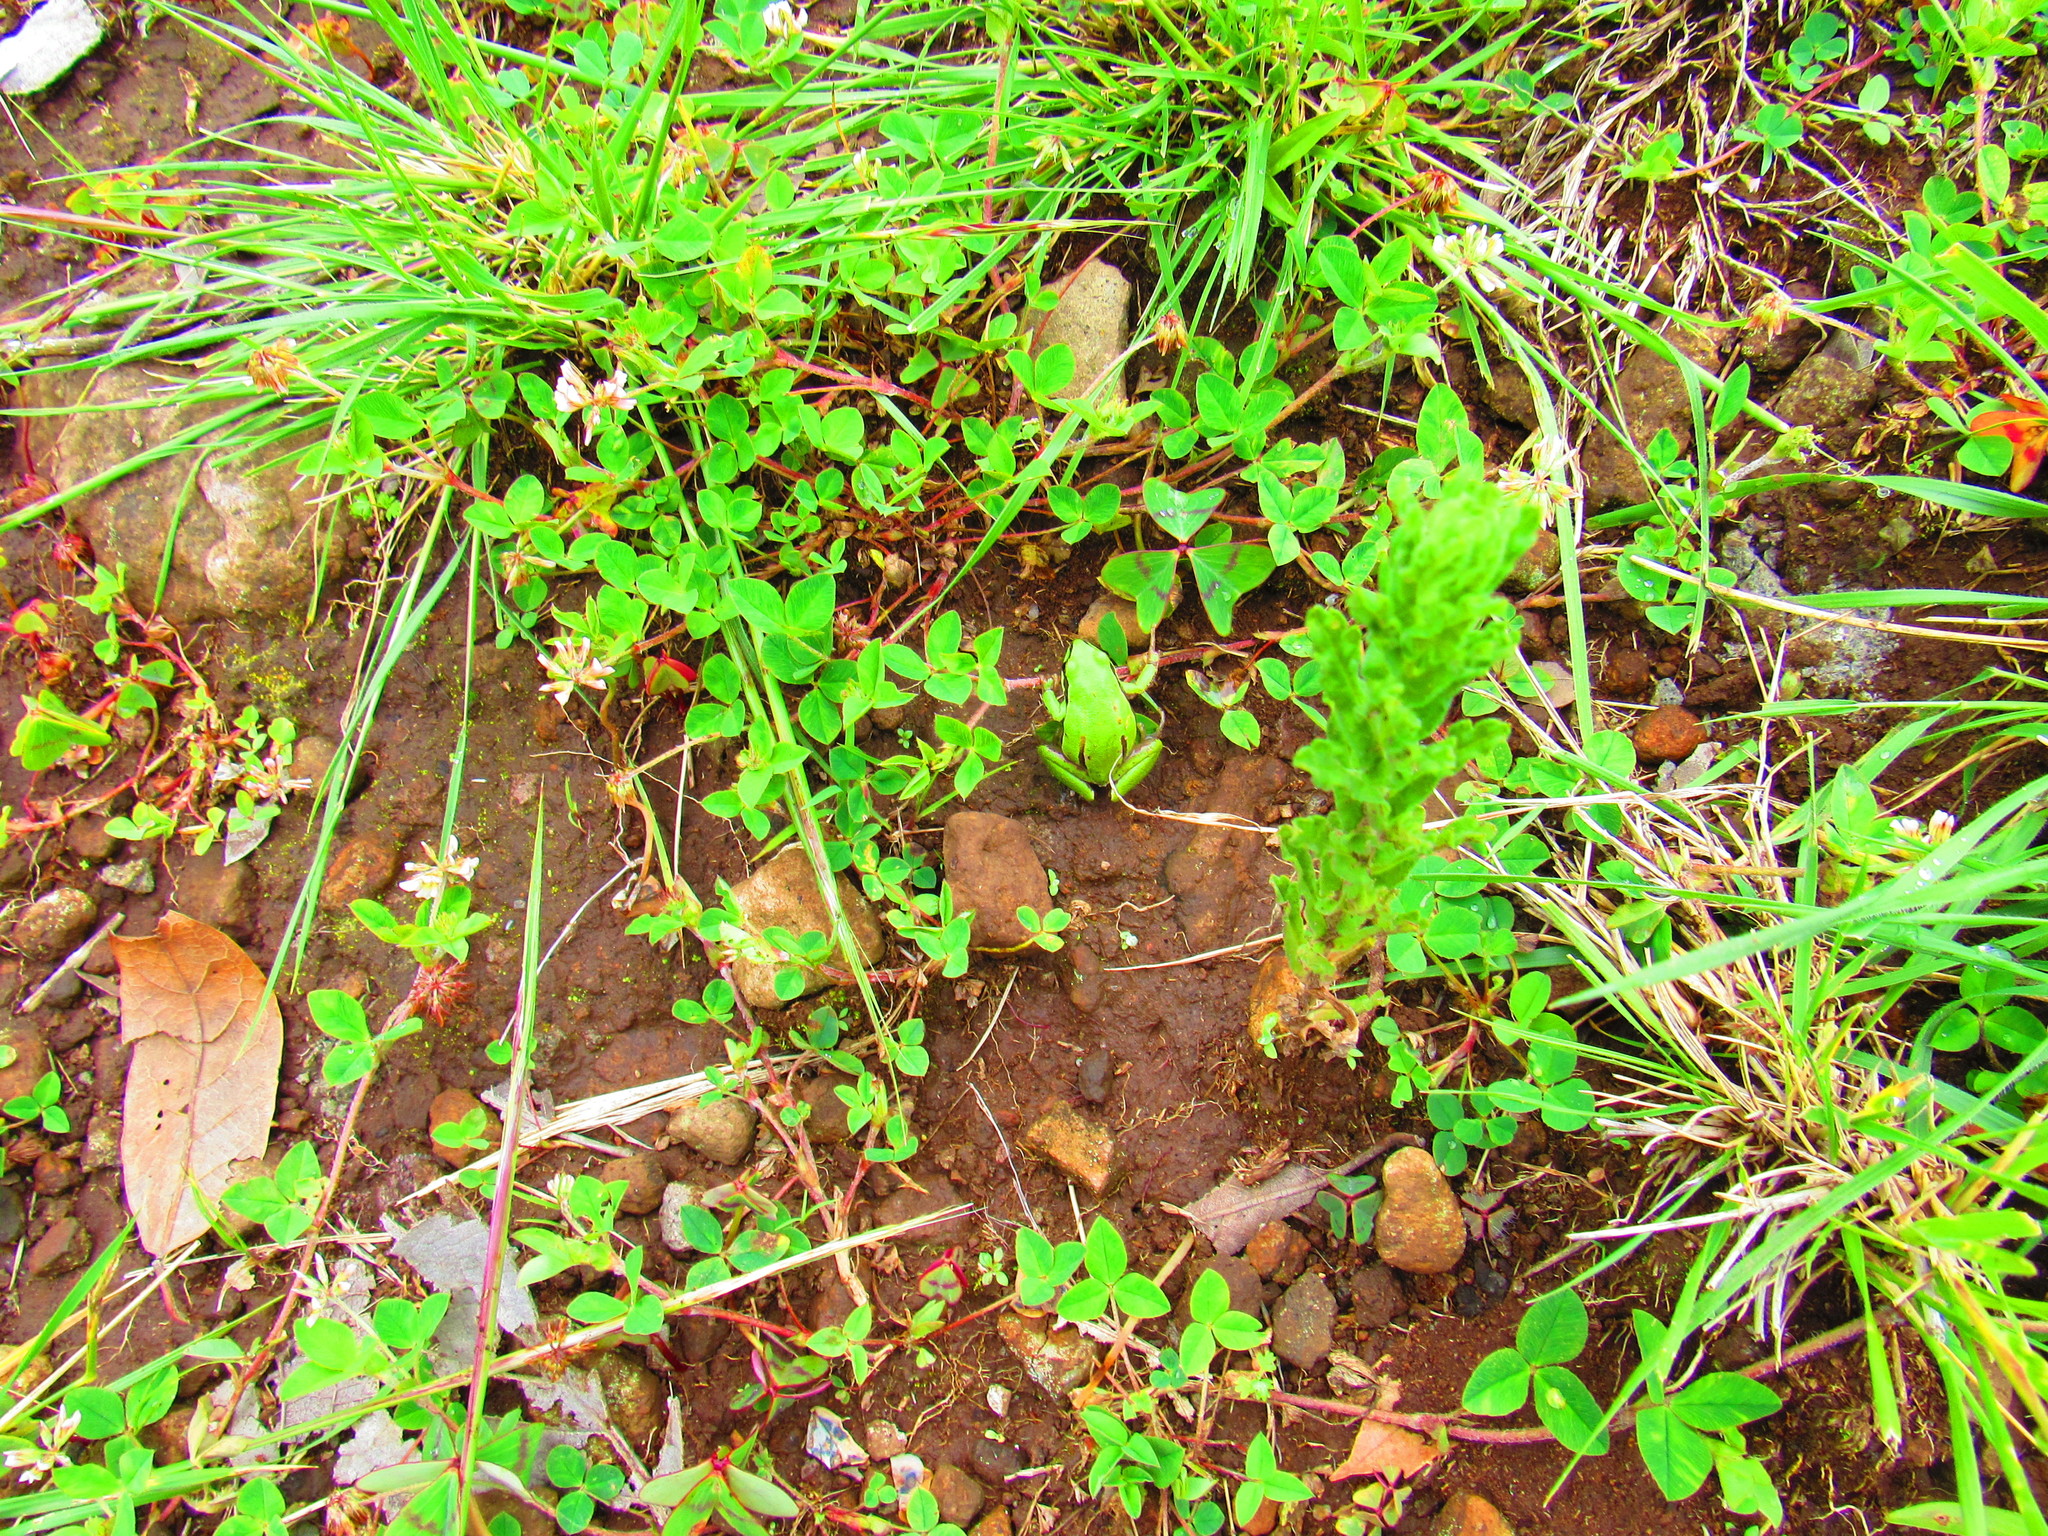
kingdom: Animalia
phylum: Chordata
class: Amphibia
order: Anura
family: Hylidae
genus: Dryophytes
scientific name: Dryophytes eximius
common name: Mountain treefrog
